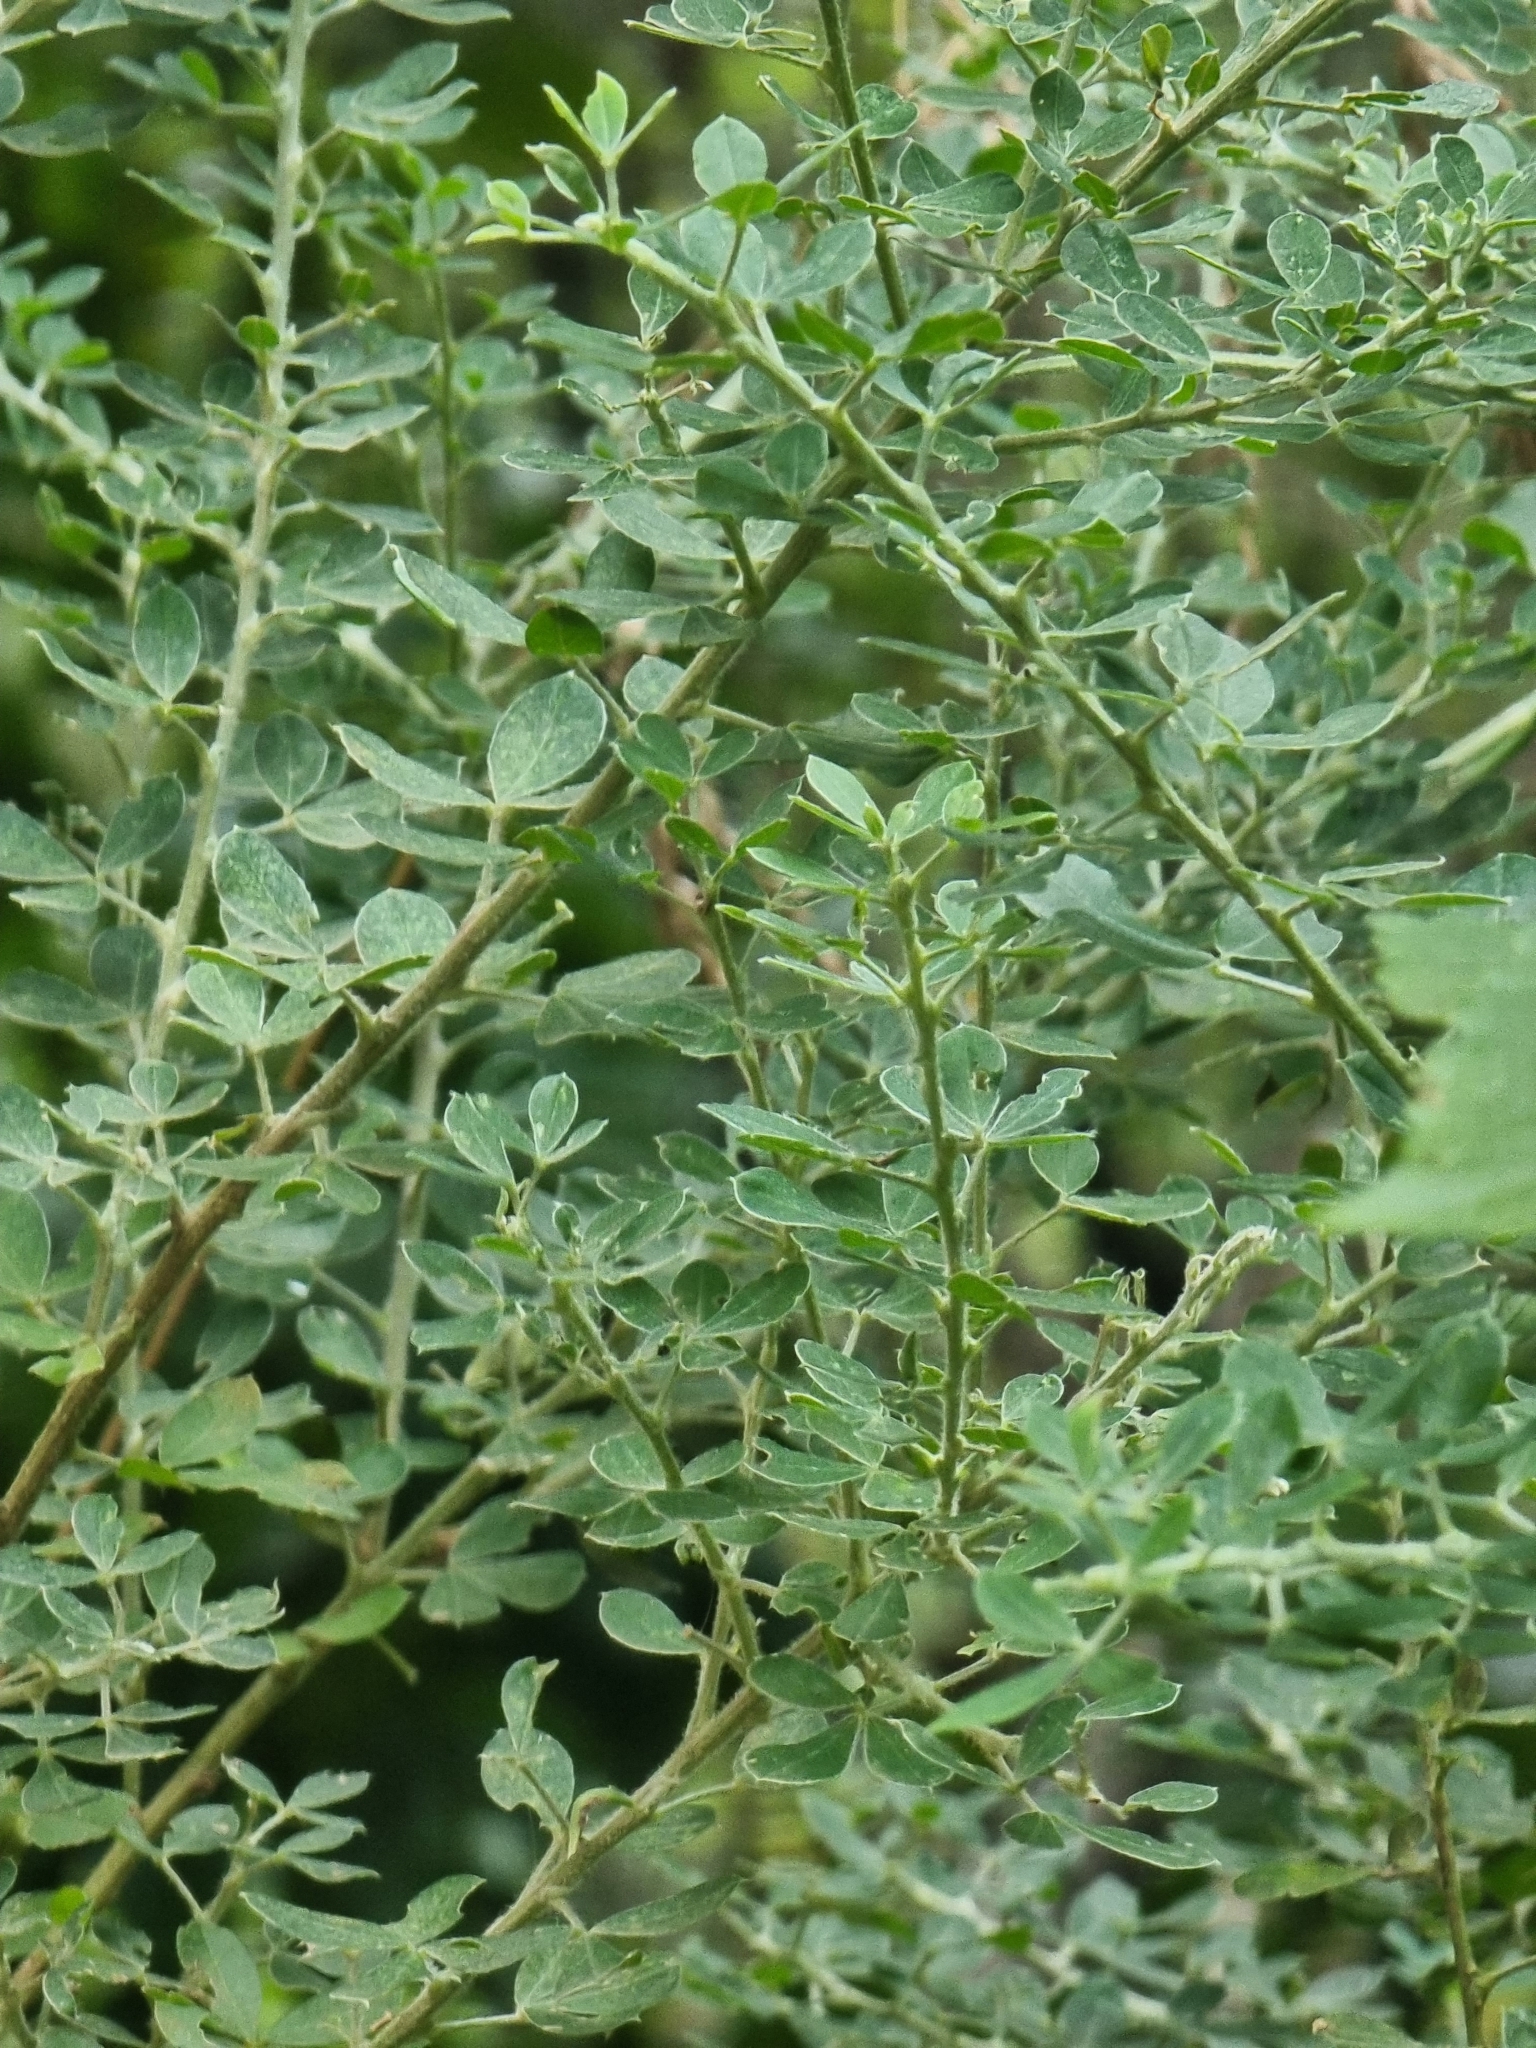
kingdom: Plantae
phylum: Tracheophyta
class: Magnoliopsida
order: Fabales
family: Fabaceae
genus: Genista
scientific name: Genista maderensis
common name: Madeira dyer's greenweed
